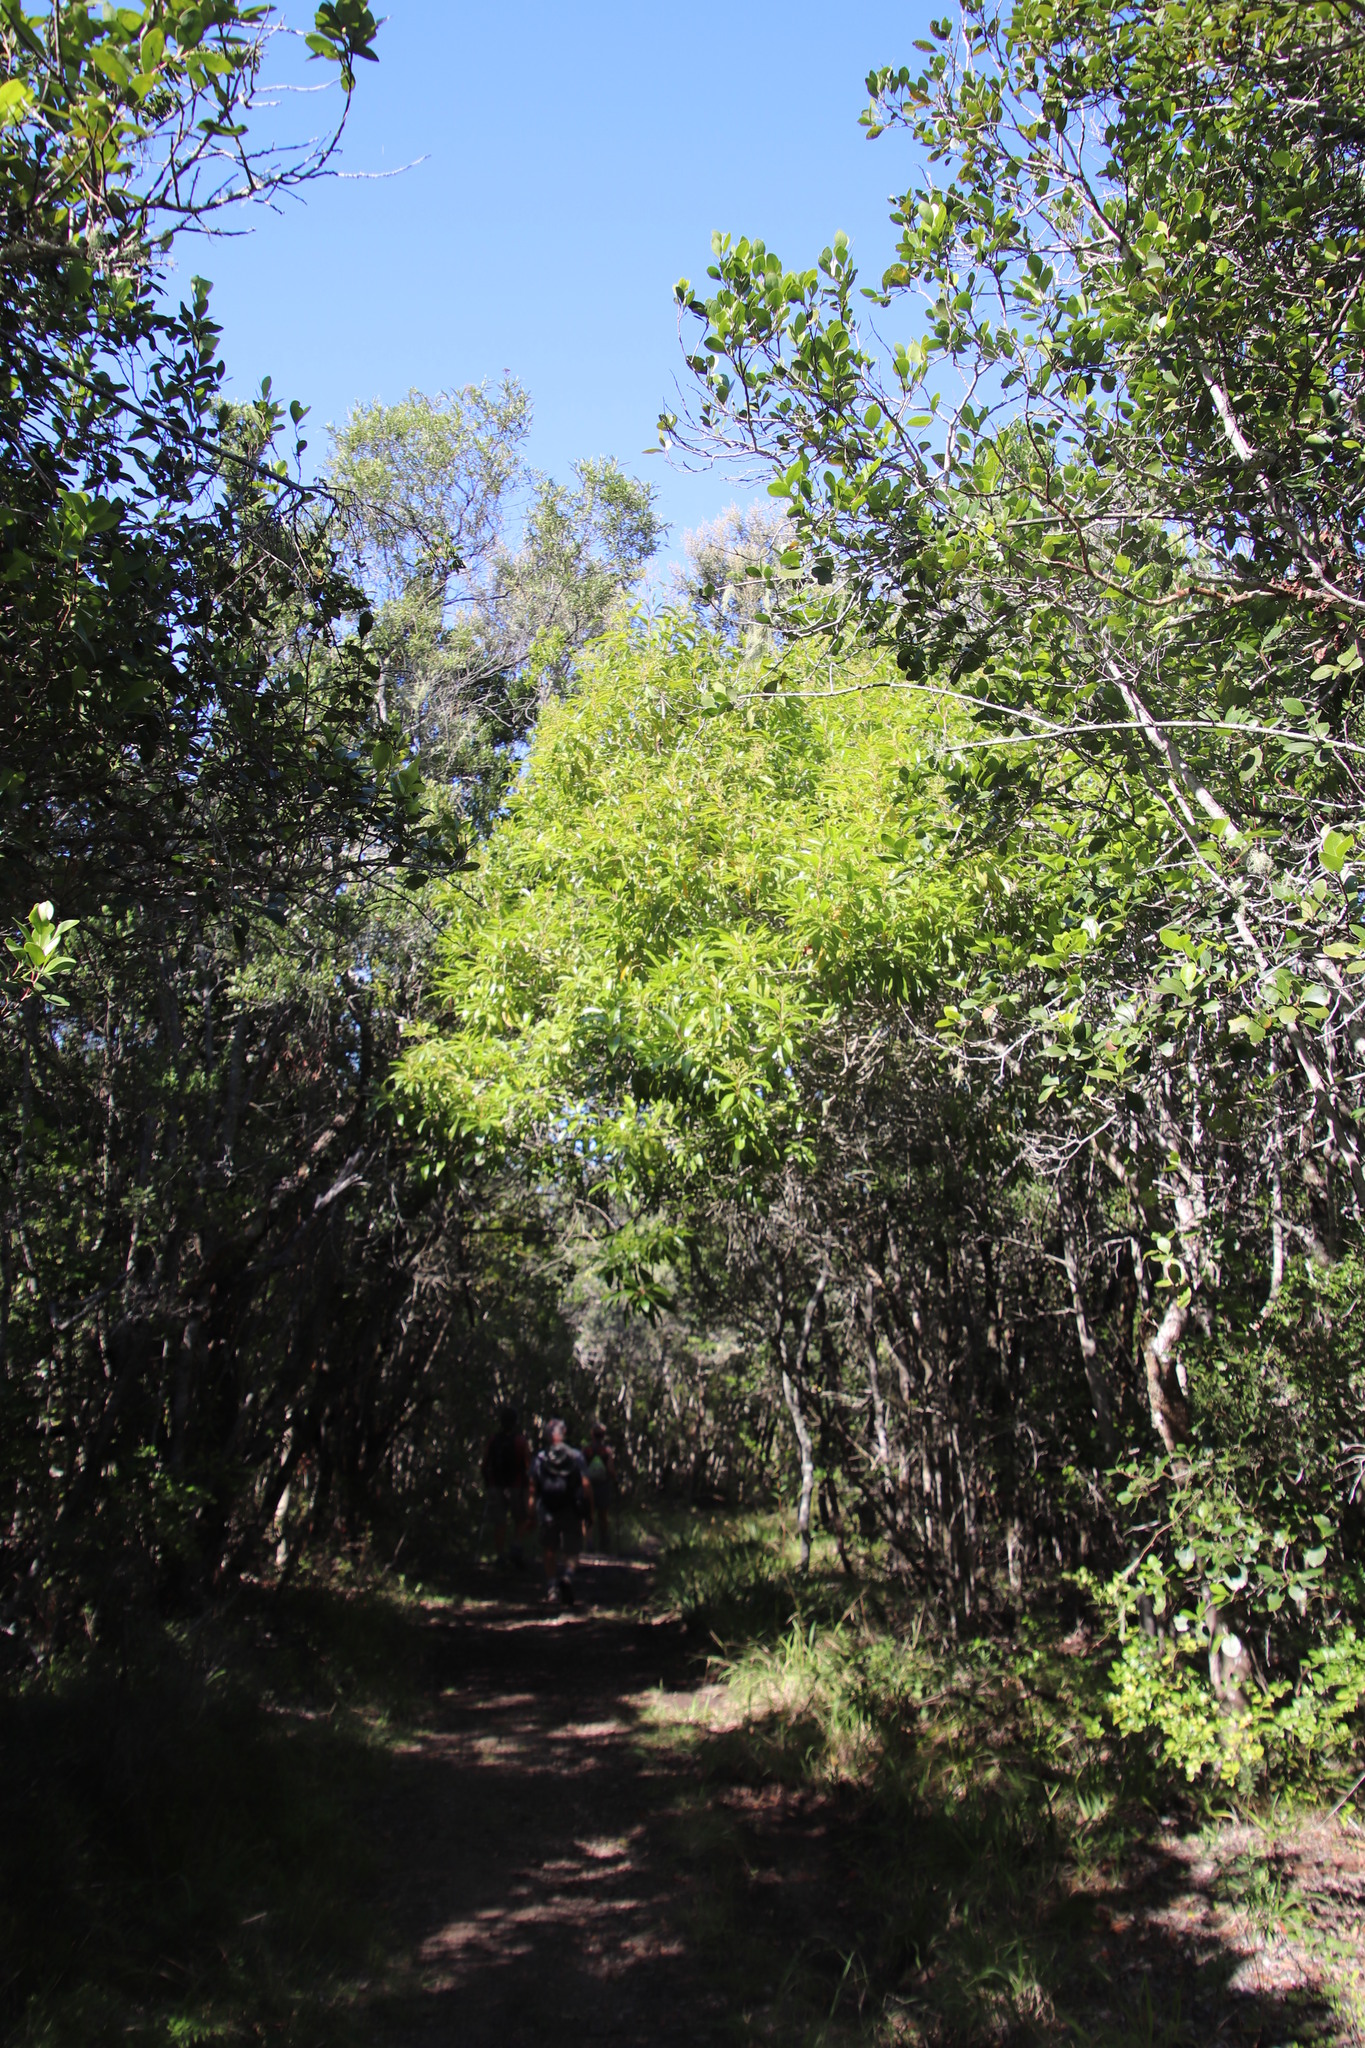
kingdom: Plantae
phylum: Tracheophyta
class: Magnoliopsida
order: Lamiales
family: Stilbaceae
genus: Nuxia
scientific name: Nuxia floribunda
